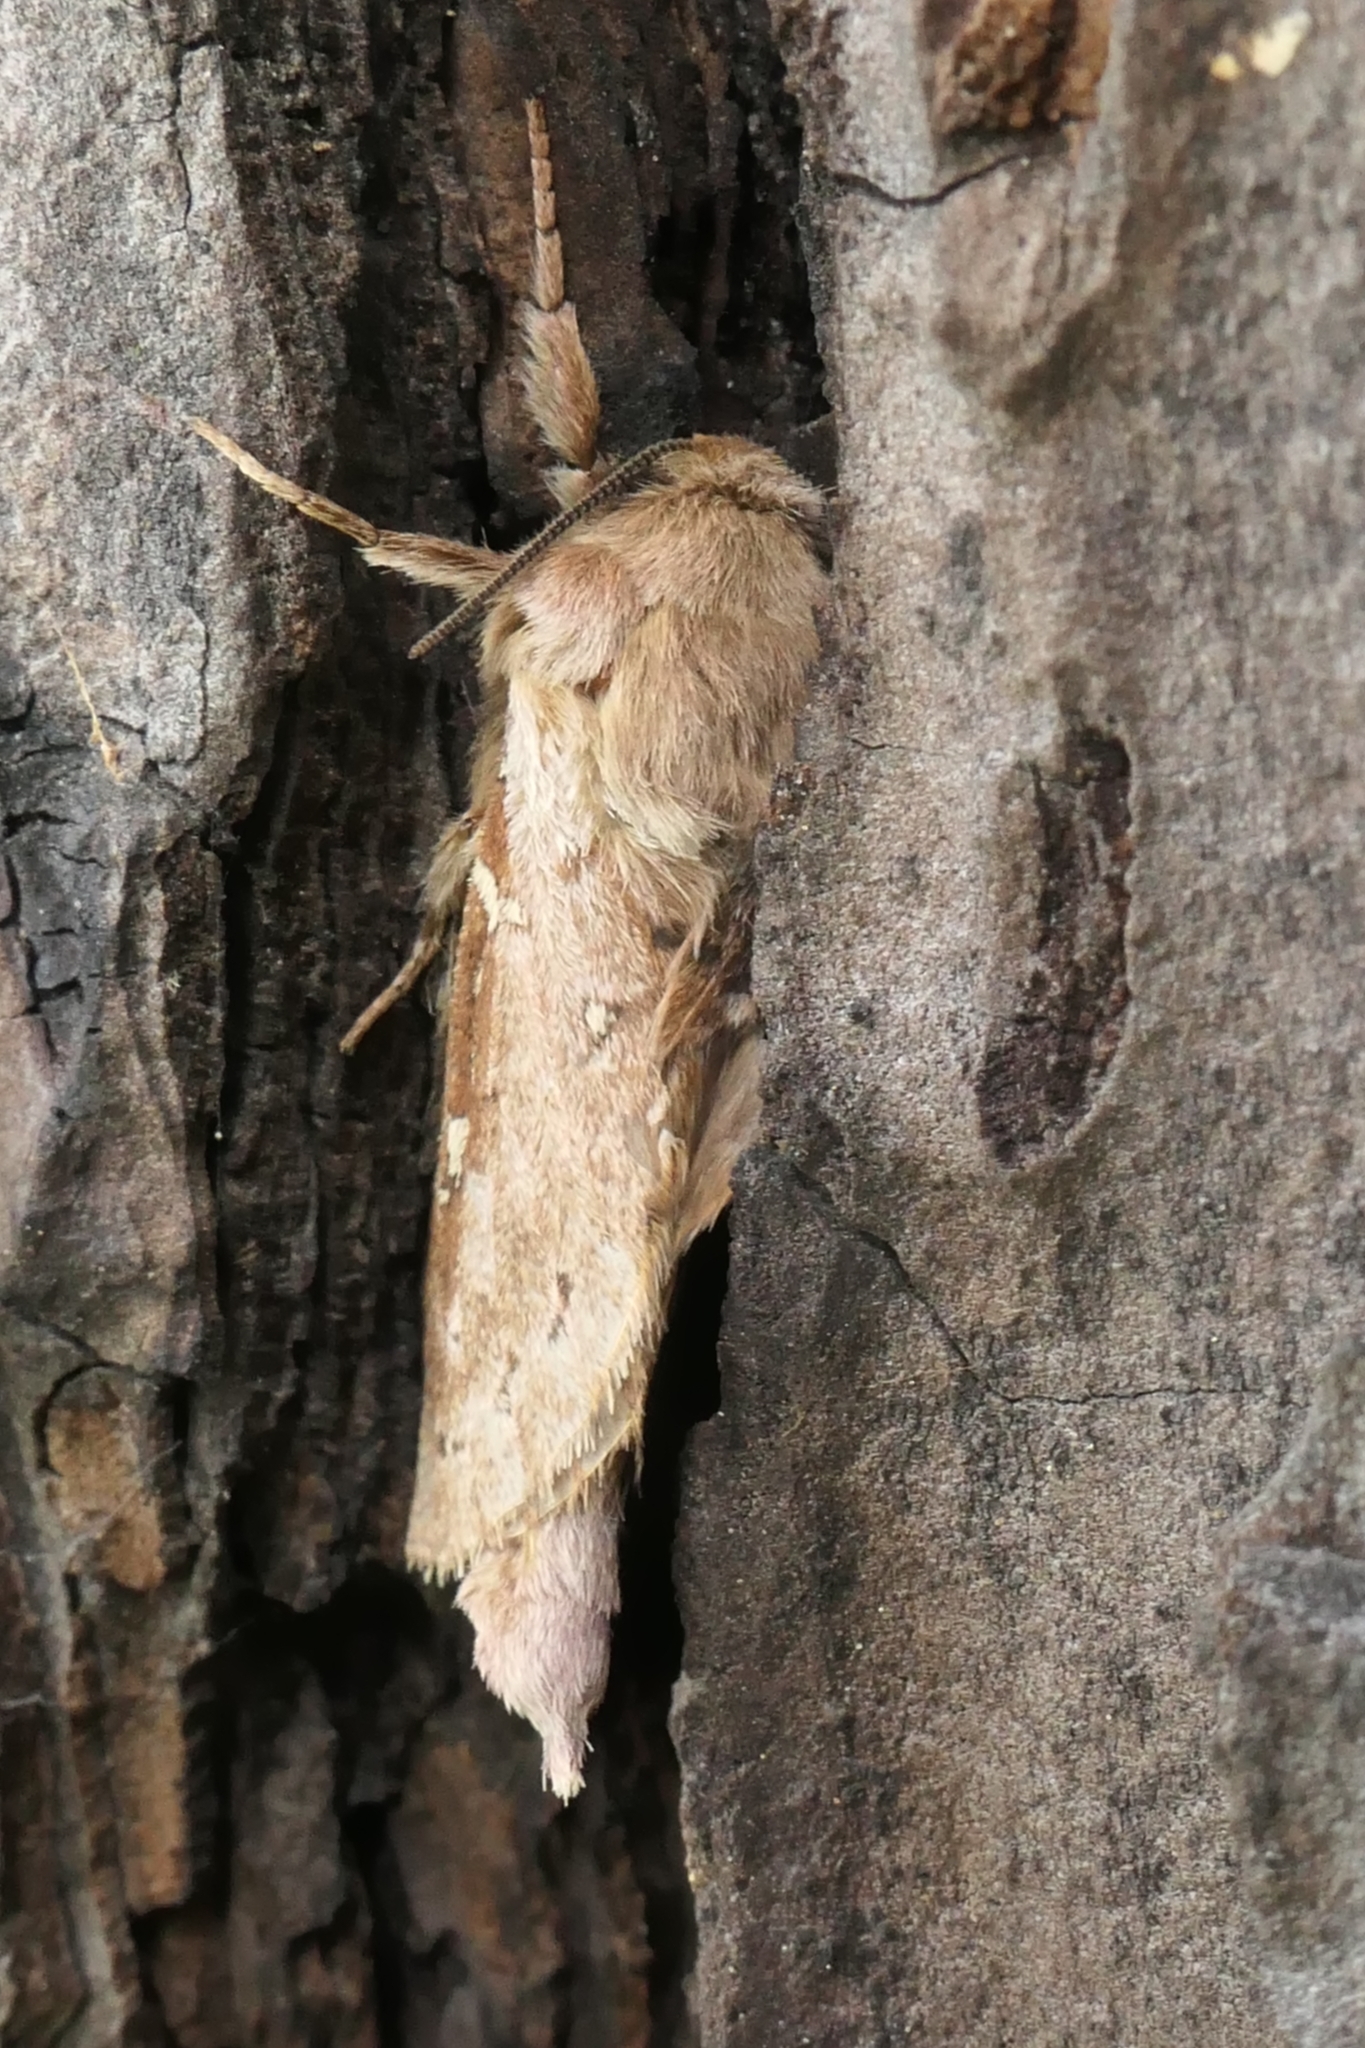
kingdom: Animalia
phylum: Arthropoda
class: Insecta
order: Lepidoptera
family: Hepialidae
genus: Wiseana
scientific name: Wiseana copularis
